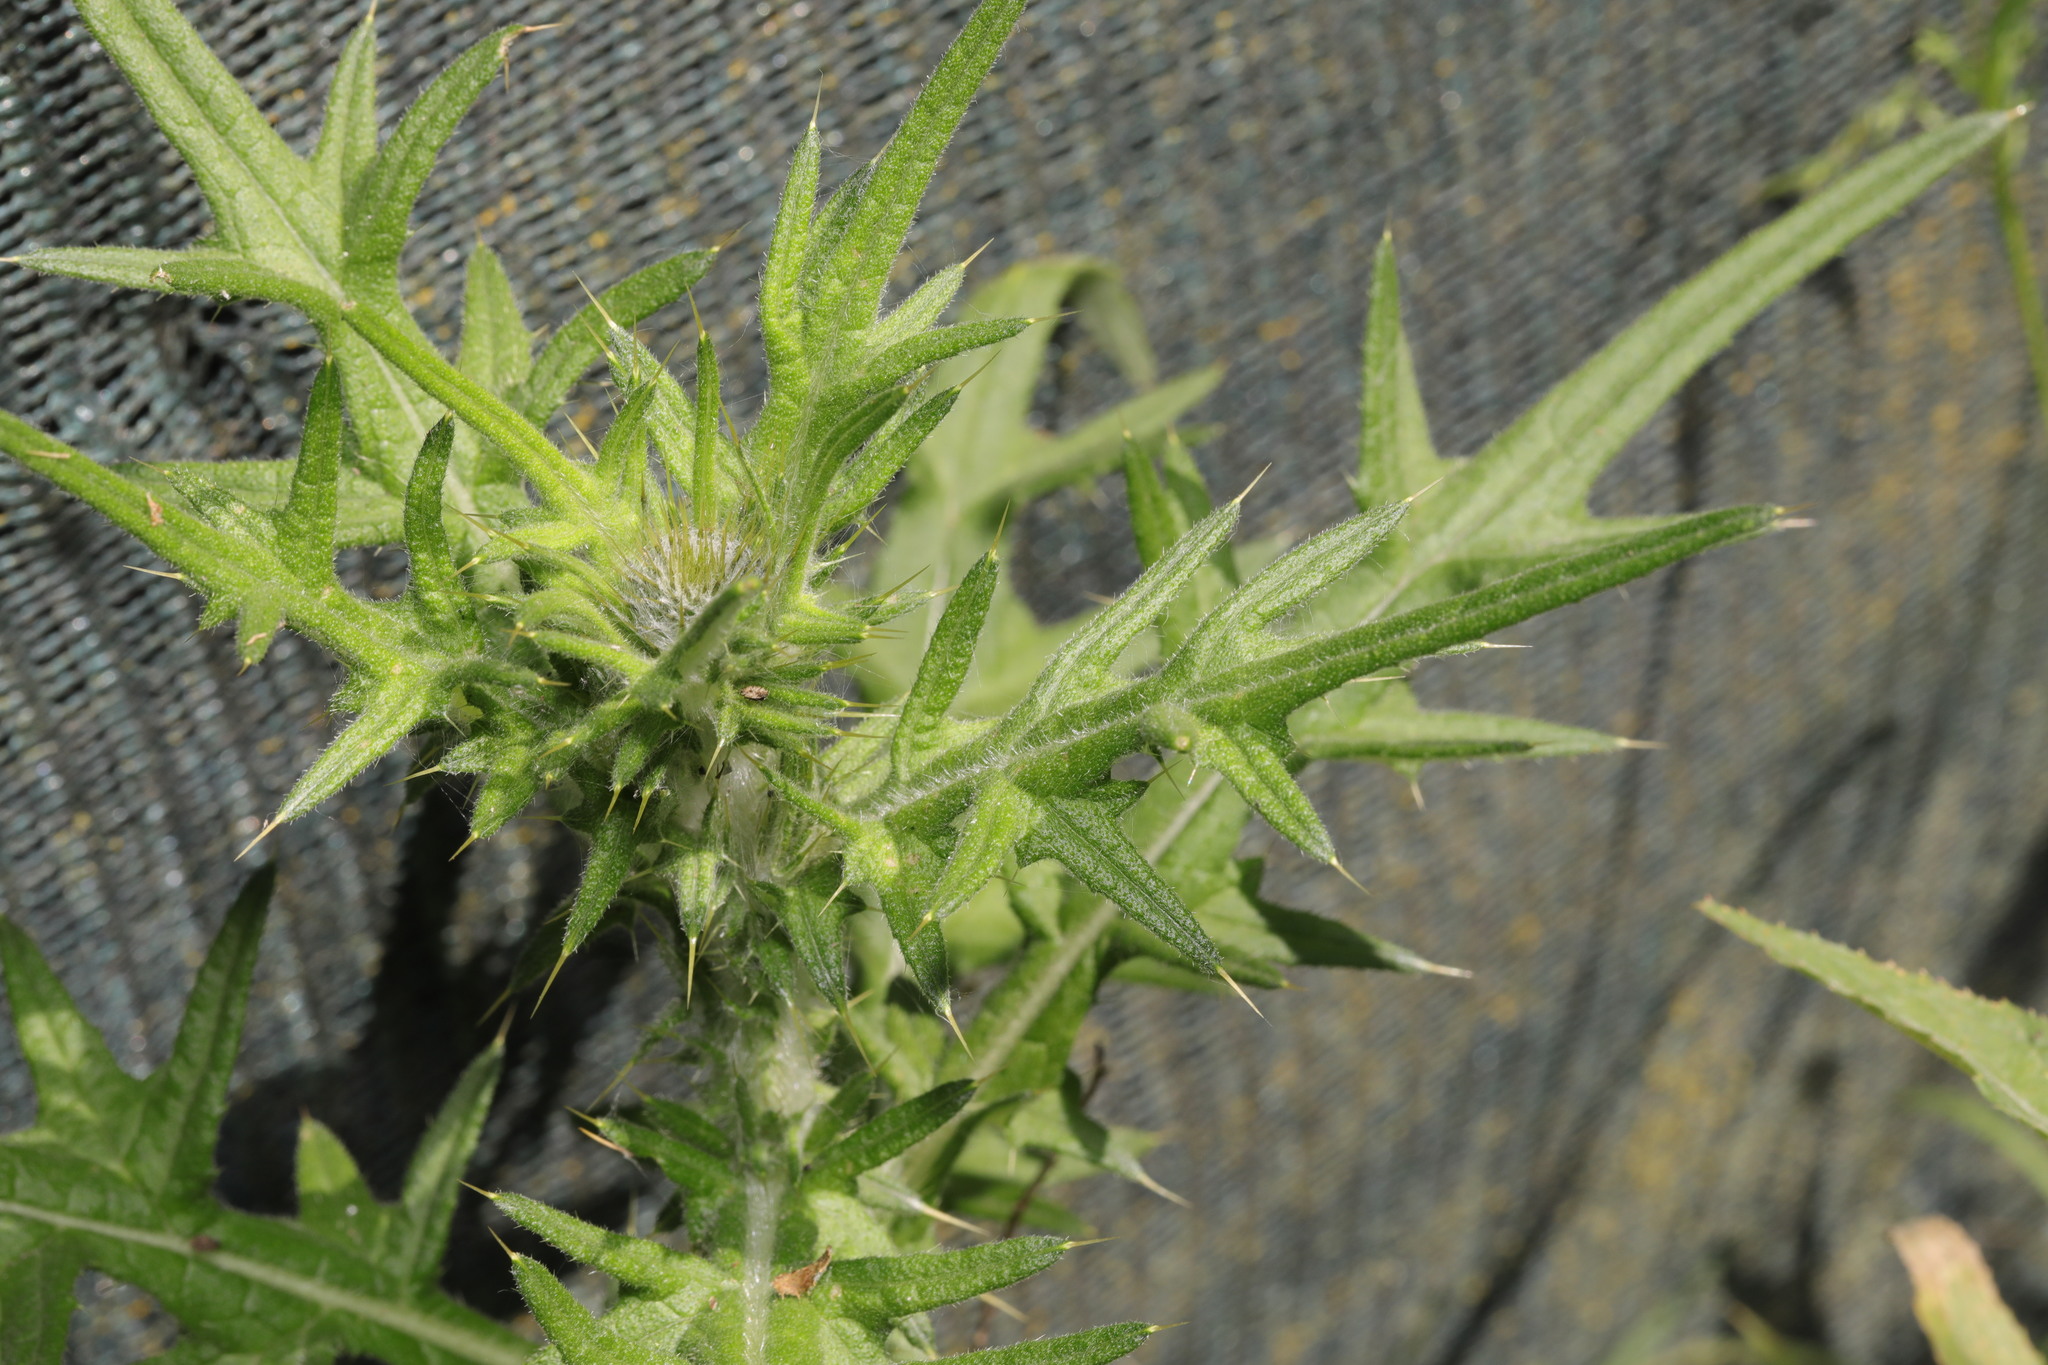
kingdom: Plantae
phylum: Tracheophyta
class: Magnoliopsida
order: Asterales
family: Asteraceae
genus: Cirsium
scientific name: Cirsium vulgare
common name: Bull thistle
